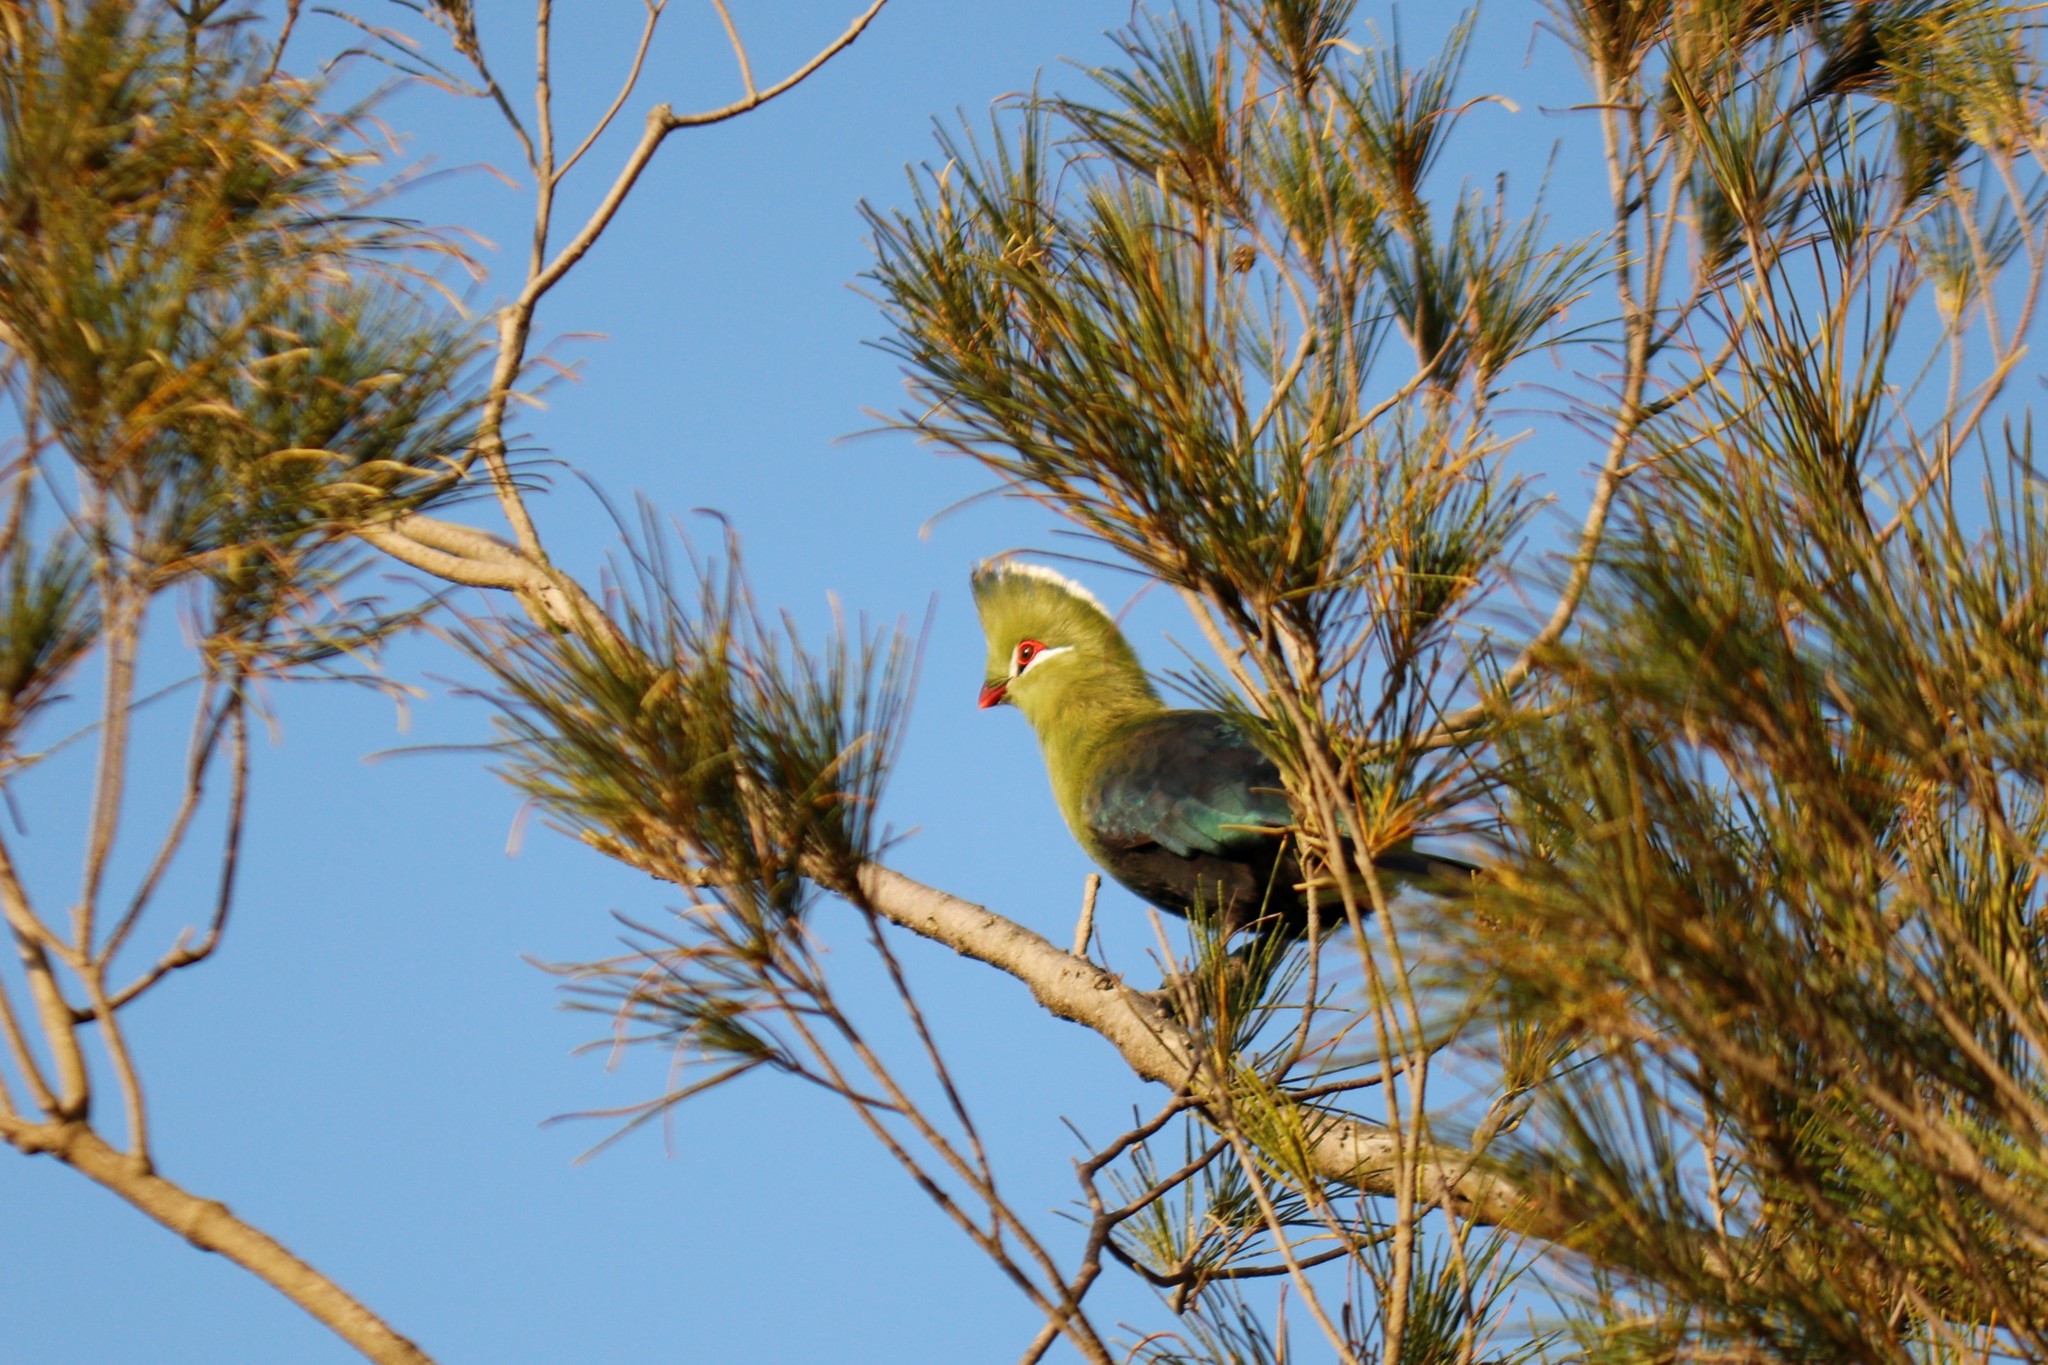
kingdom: Animalia
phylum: Chordata
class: Aves
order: Musophagiformes
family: Musophagidae
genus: Tauraco
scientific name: Tauraco corythaix
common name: Knysna turaco
